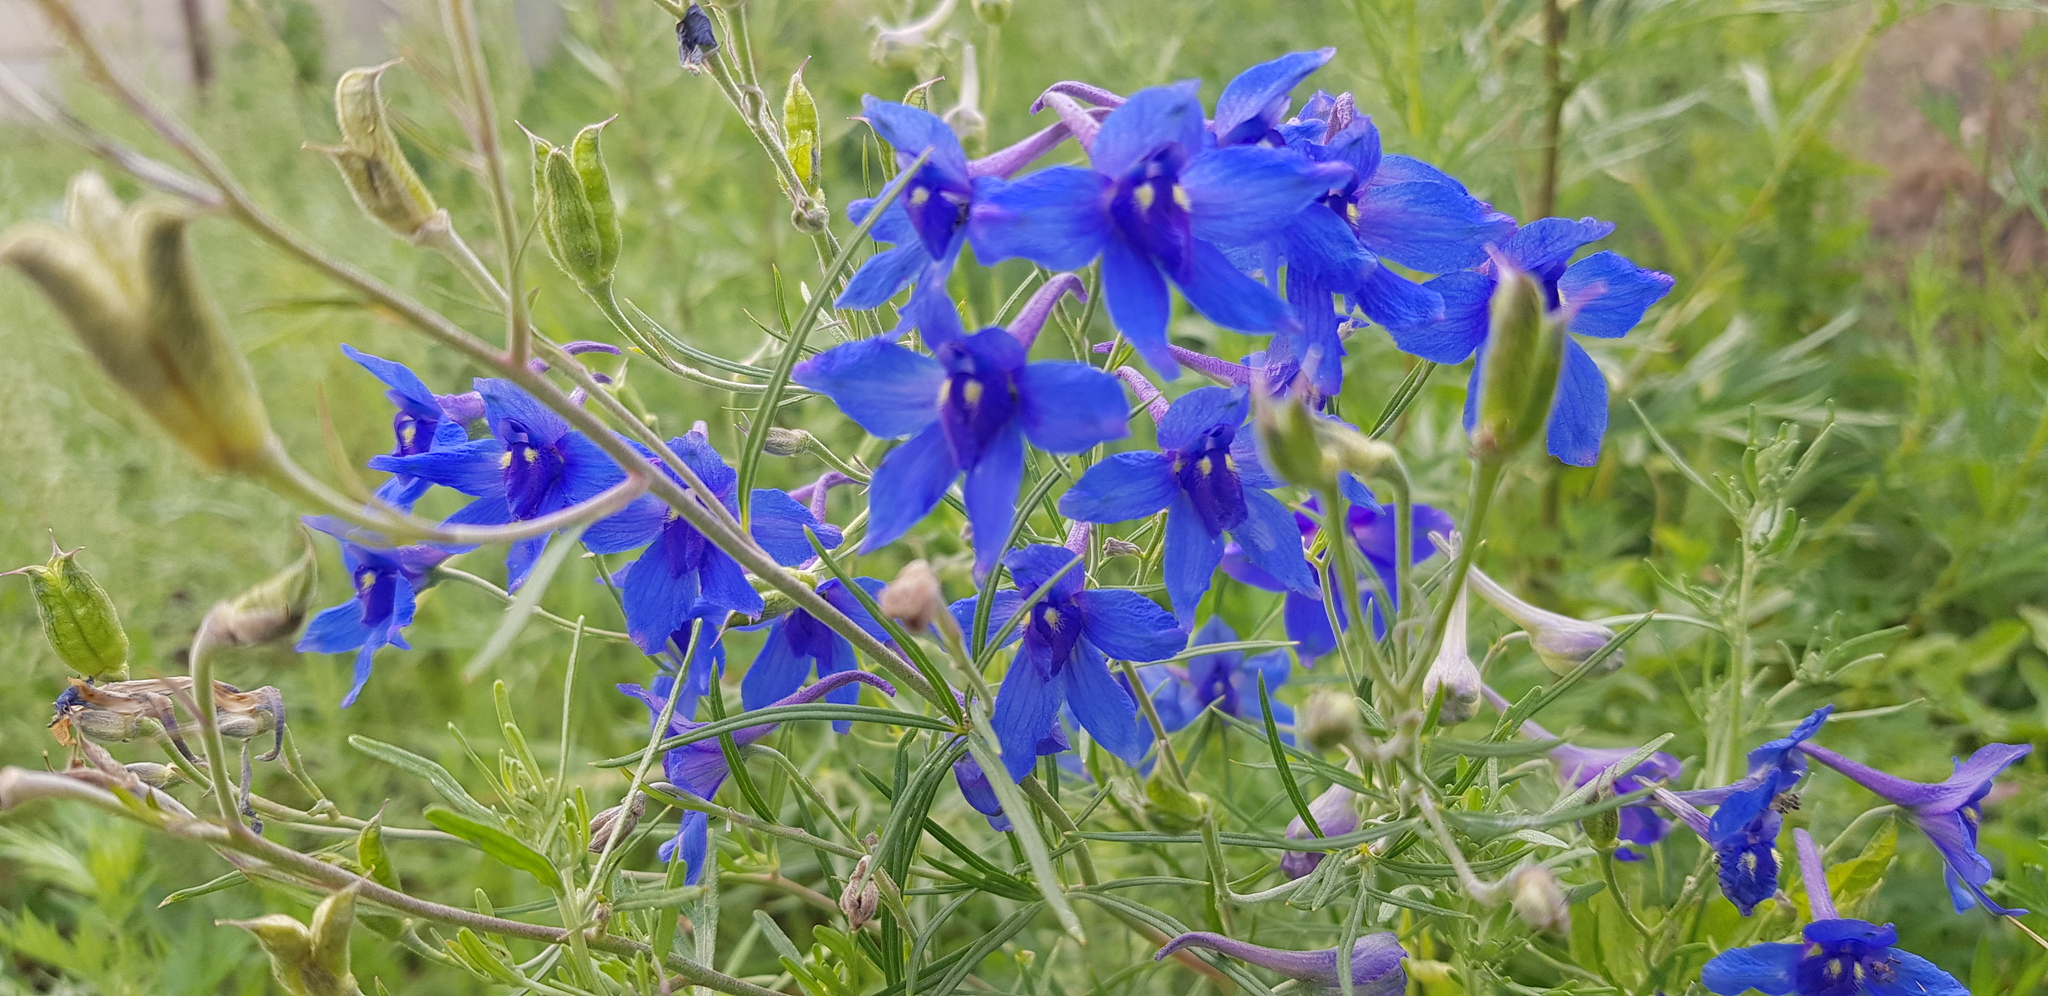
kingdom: Plantae
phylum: Tracheophyta
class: Magnoliopsida
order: Ranunculales
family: Ranunculaceae
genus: Delphinium
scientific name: Delphinium grandiflorum
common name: Siberian larkspur
